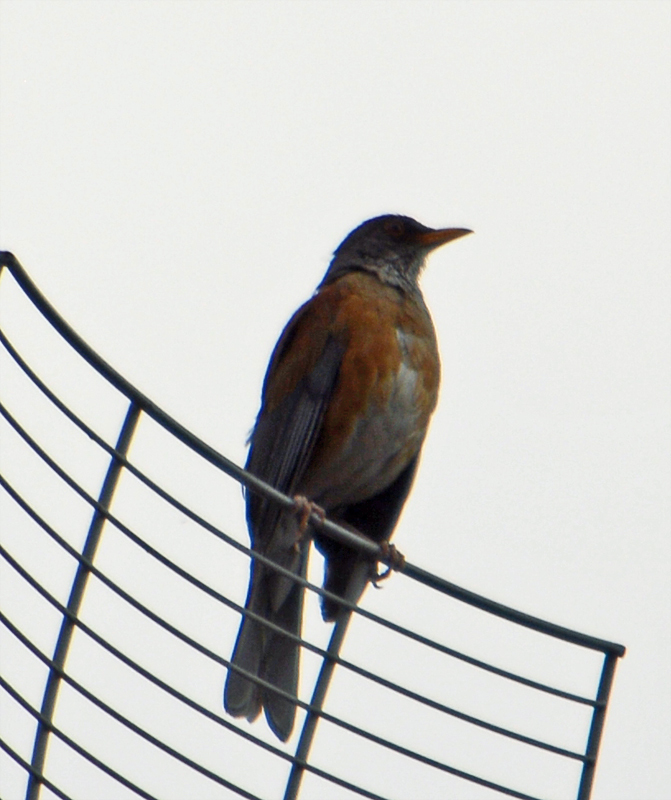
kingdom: Animalia
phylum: Chordata
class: Aves
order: Passeriformes
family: Turdidae
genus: Turdus
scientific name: Turdus rufopalliatus
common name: Rufous-backed robin
